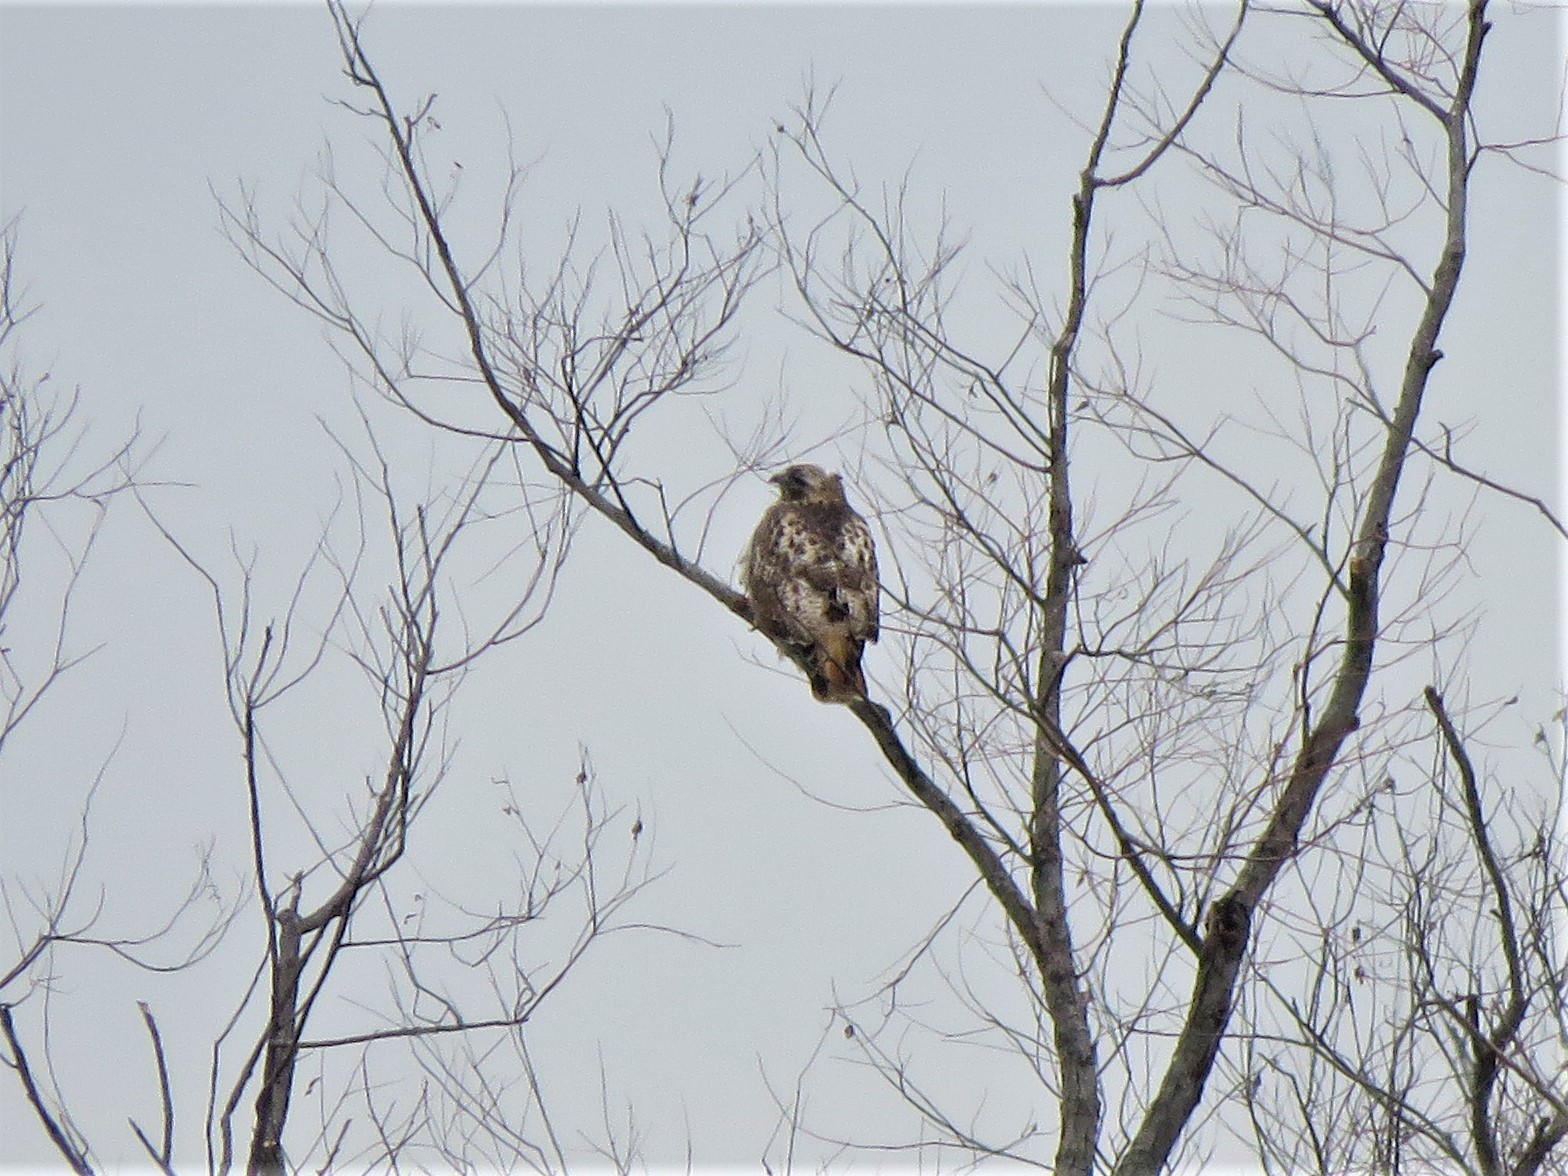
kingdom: Animalia
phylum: Chordata
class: Aves
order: Accipitriformes
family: Accipitridae
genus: Buteo
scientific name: Buteo jamaicensis
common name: Red-tailed hawk
